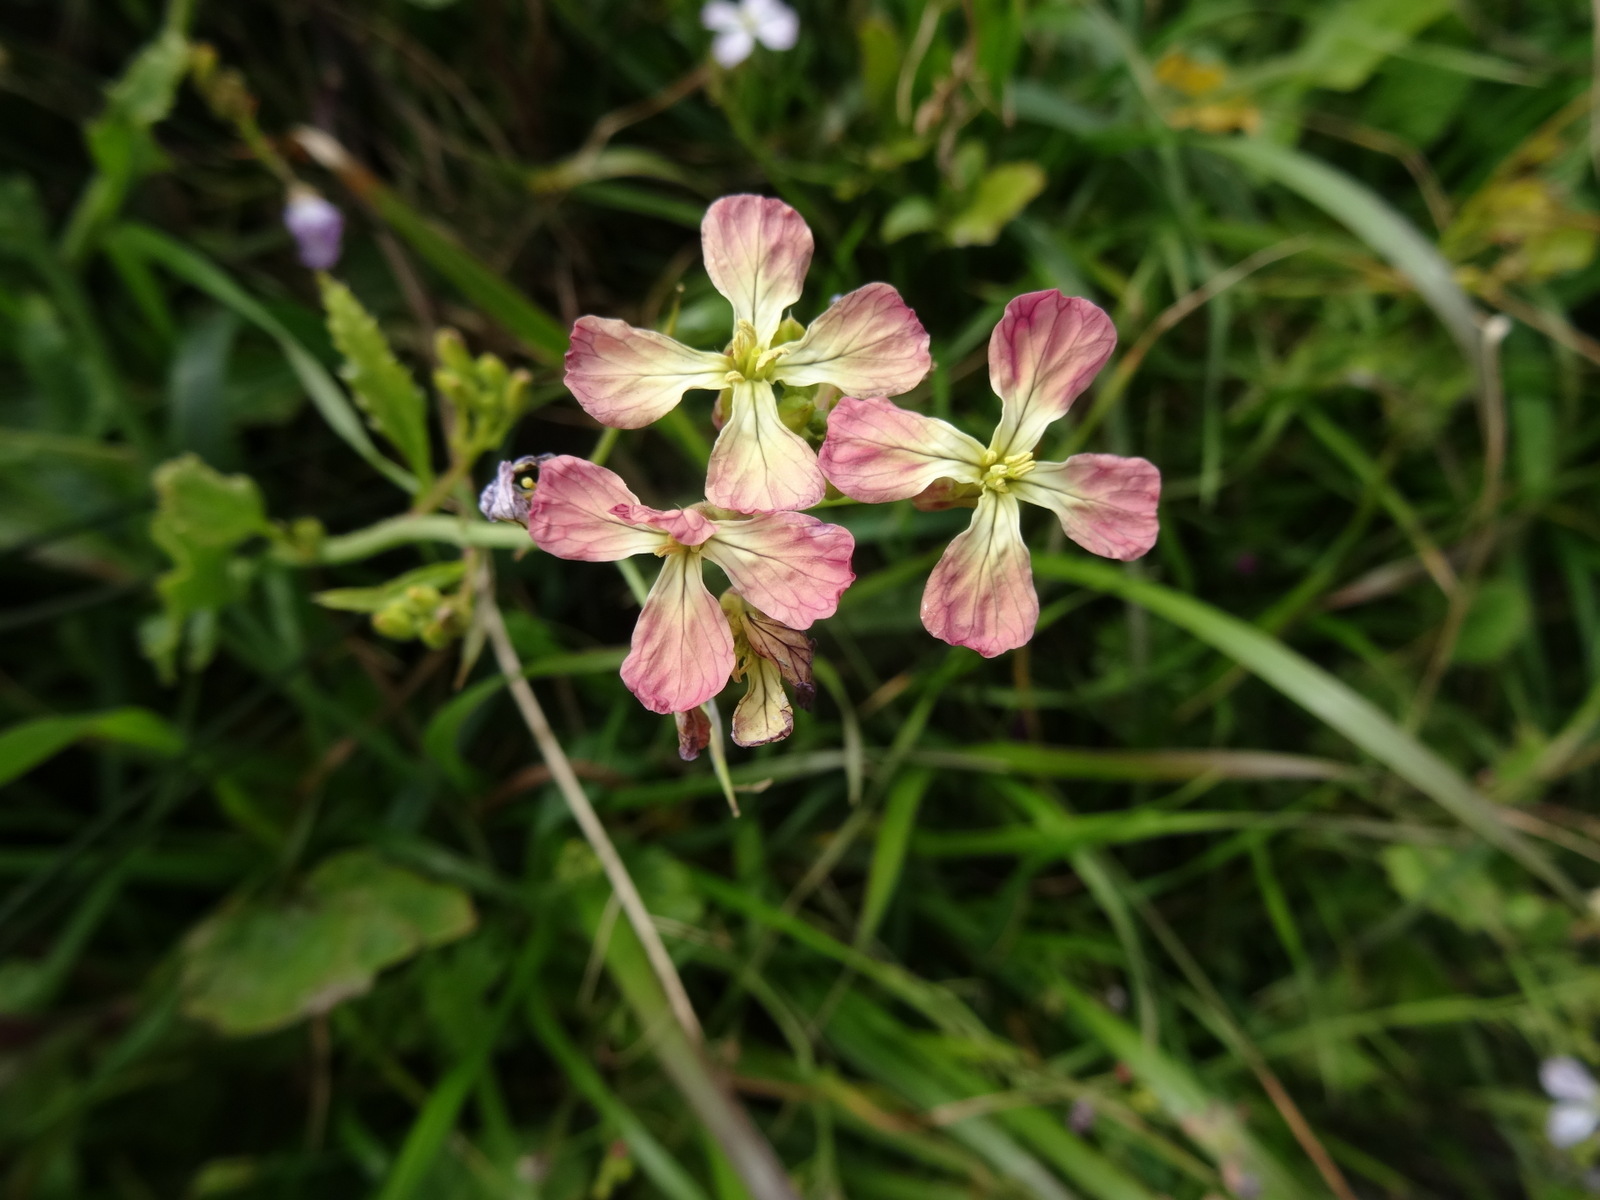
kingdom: Plantae
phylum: Tracheophyta
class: Magnoliopsida
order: Brassicales
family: Brassicaceae
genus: Raphanus
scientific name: Raphanus sativus
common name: Cultivated radish
